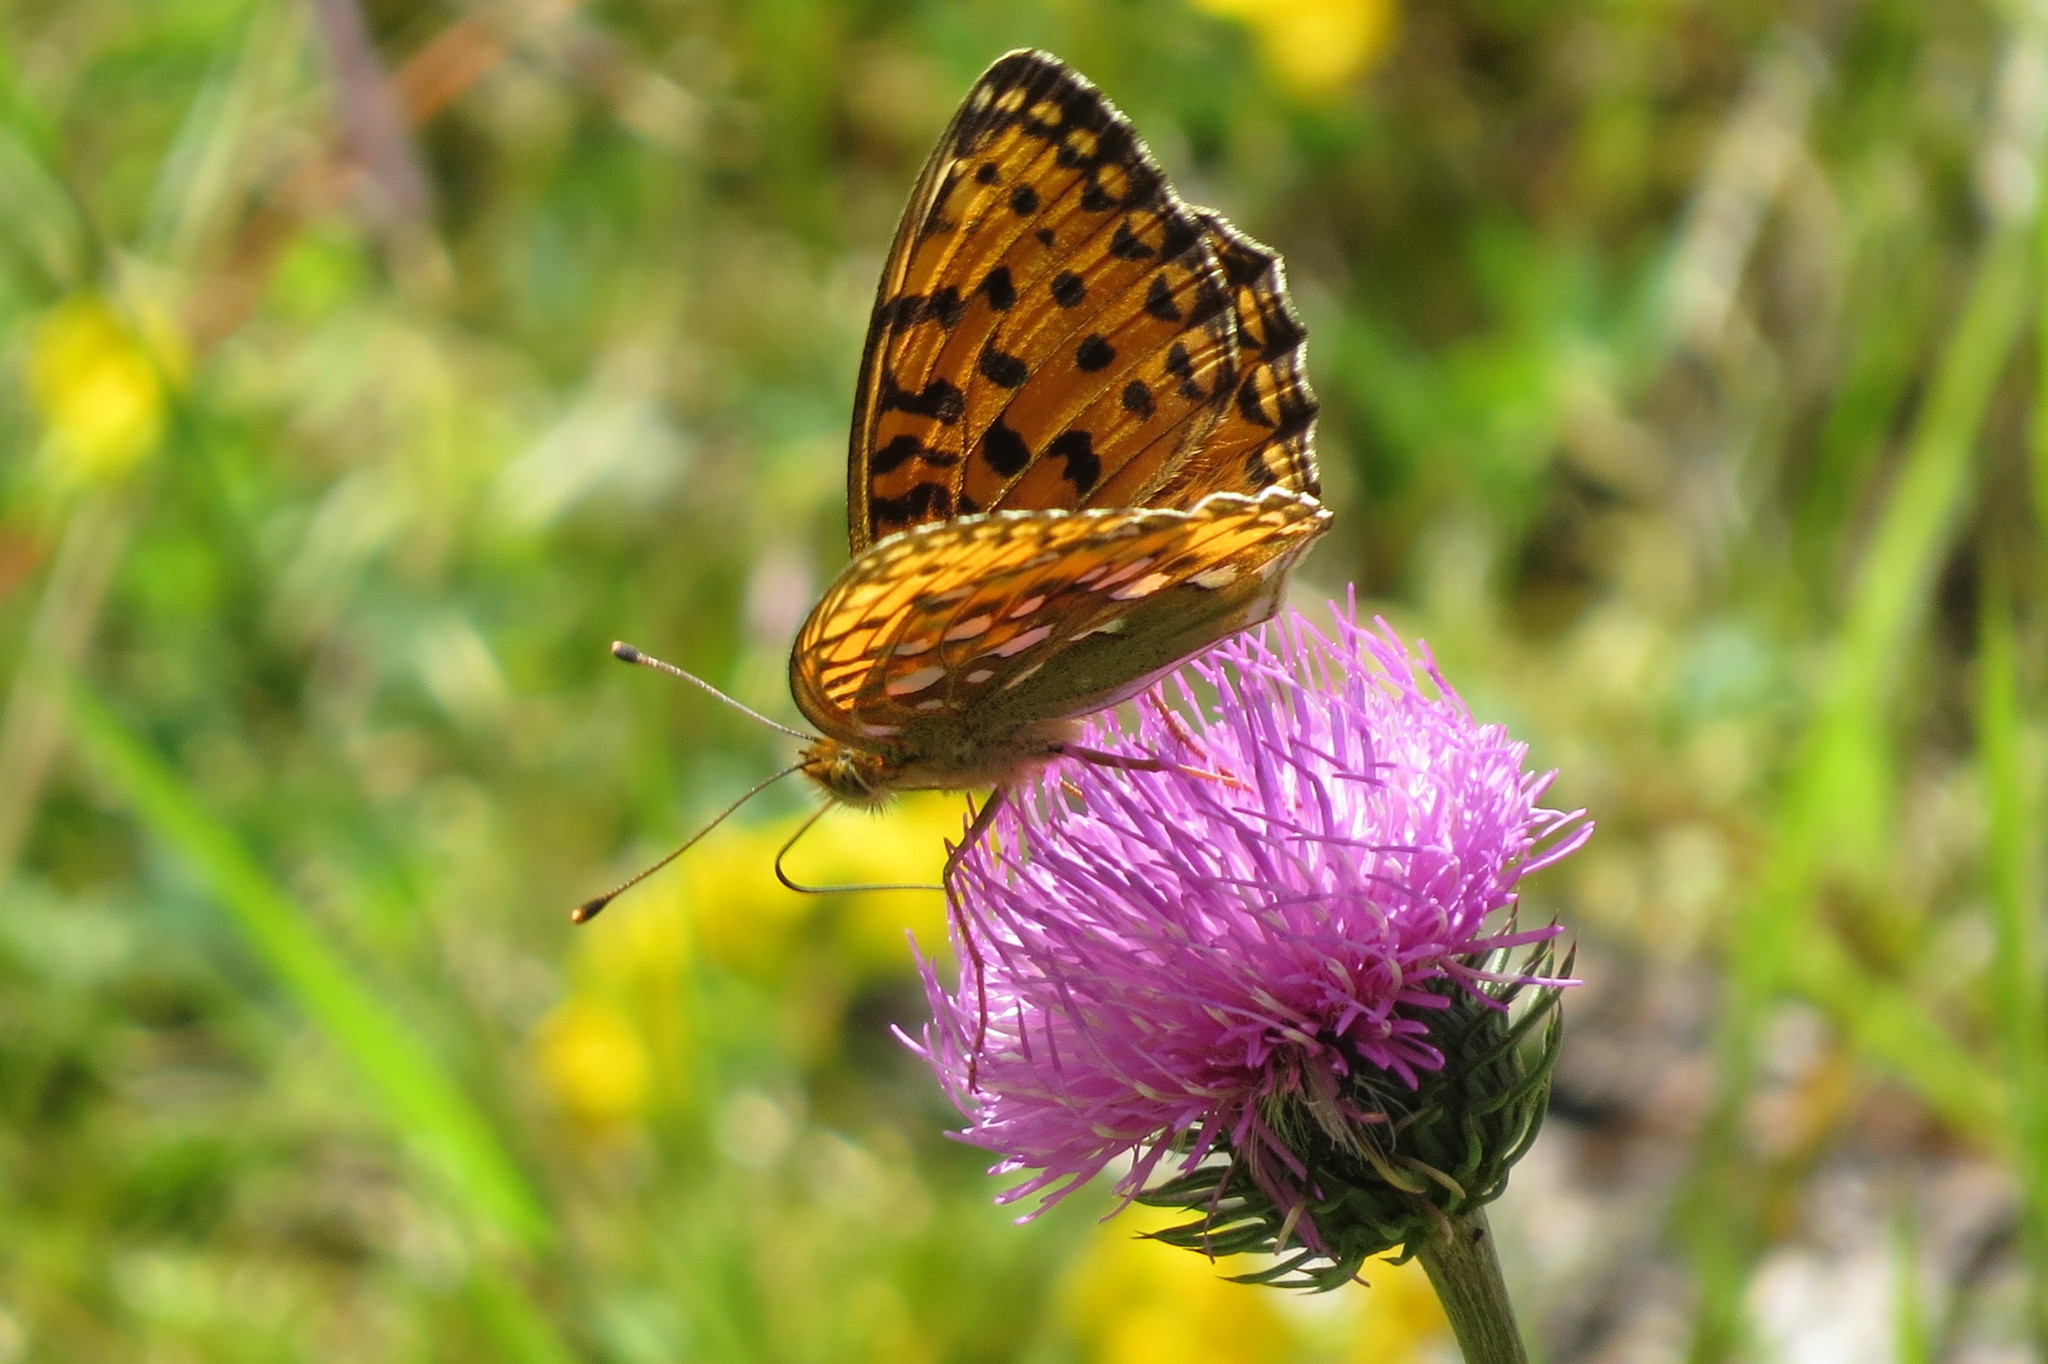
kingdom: Animalia
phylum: Arthropoda
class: Insecta
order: Lepidoptera
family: Nymphalidae
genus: Speyeria
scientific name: Speyeria aglaja
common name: Dark green fritillary
